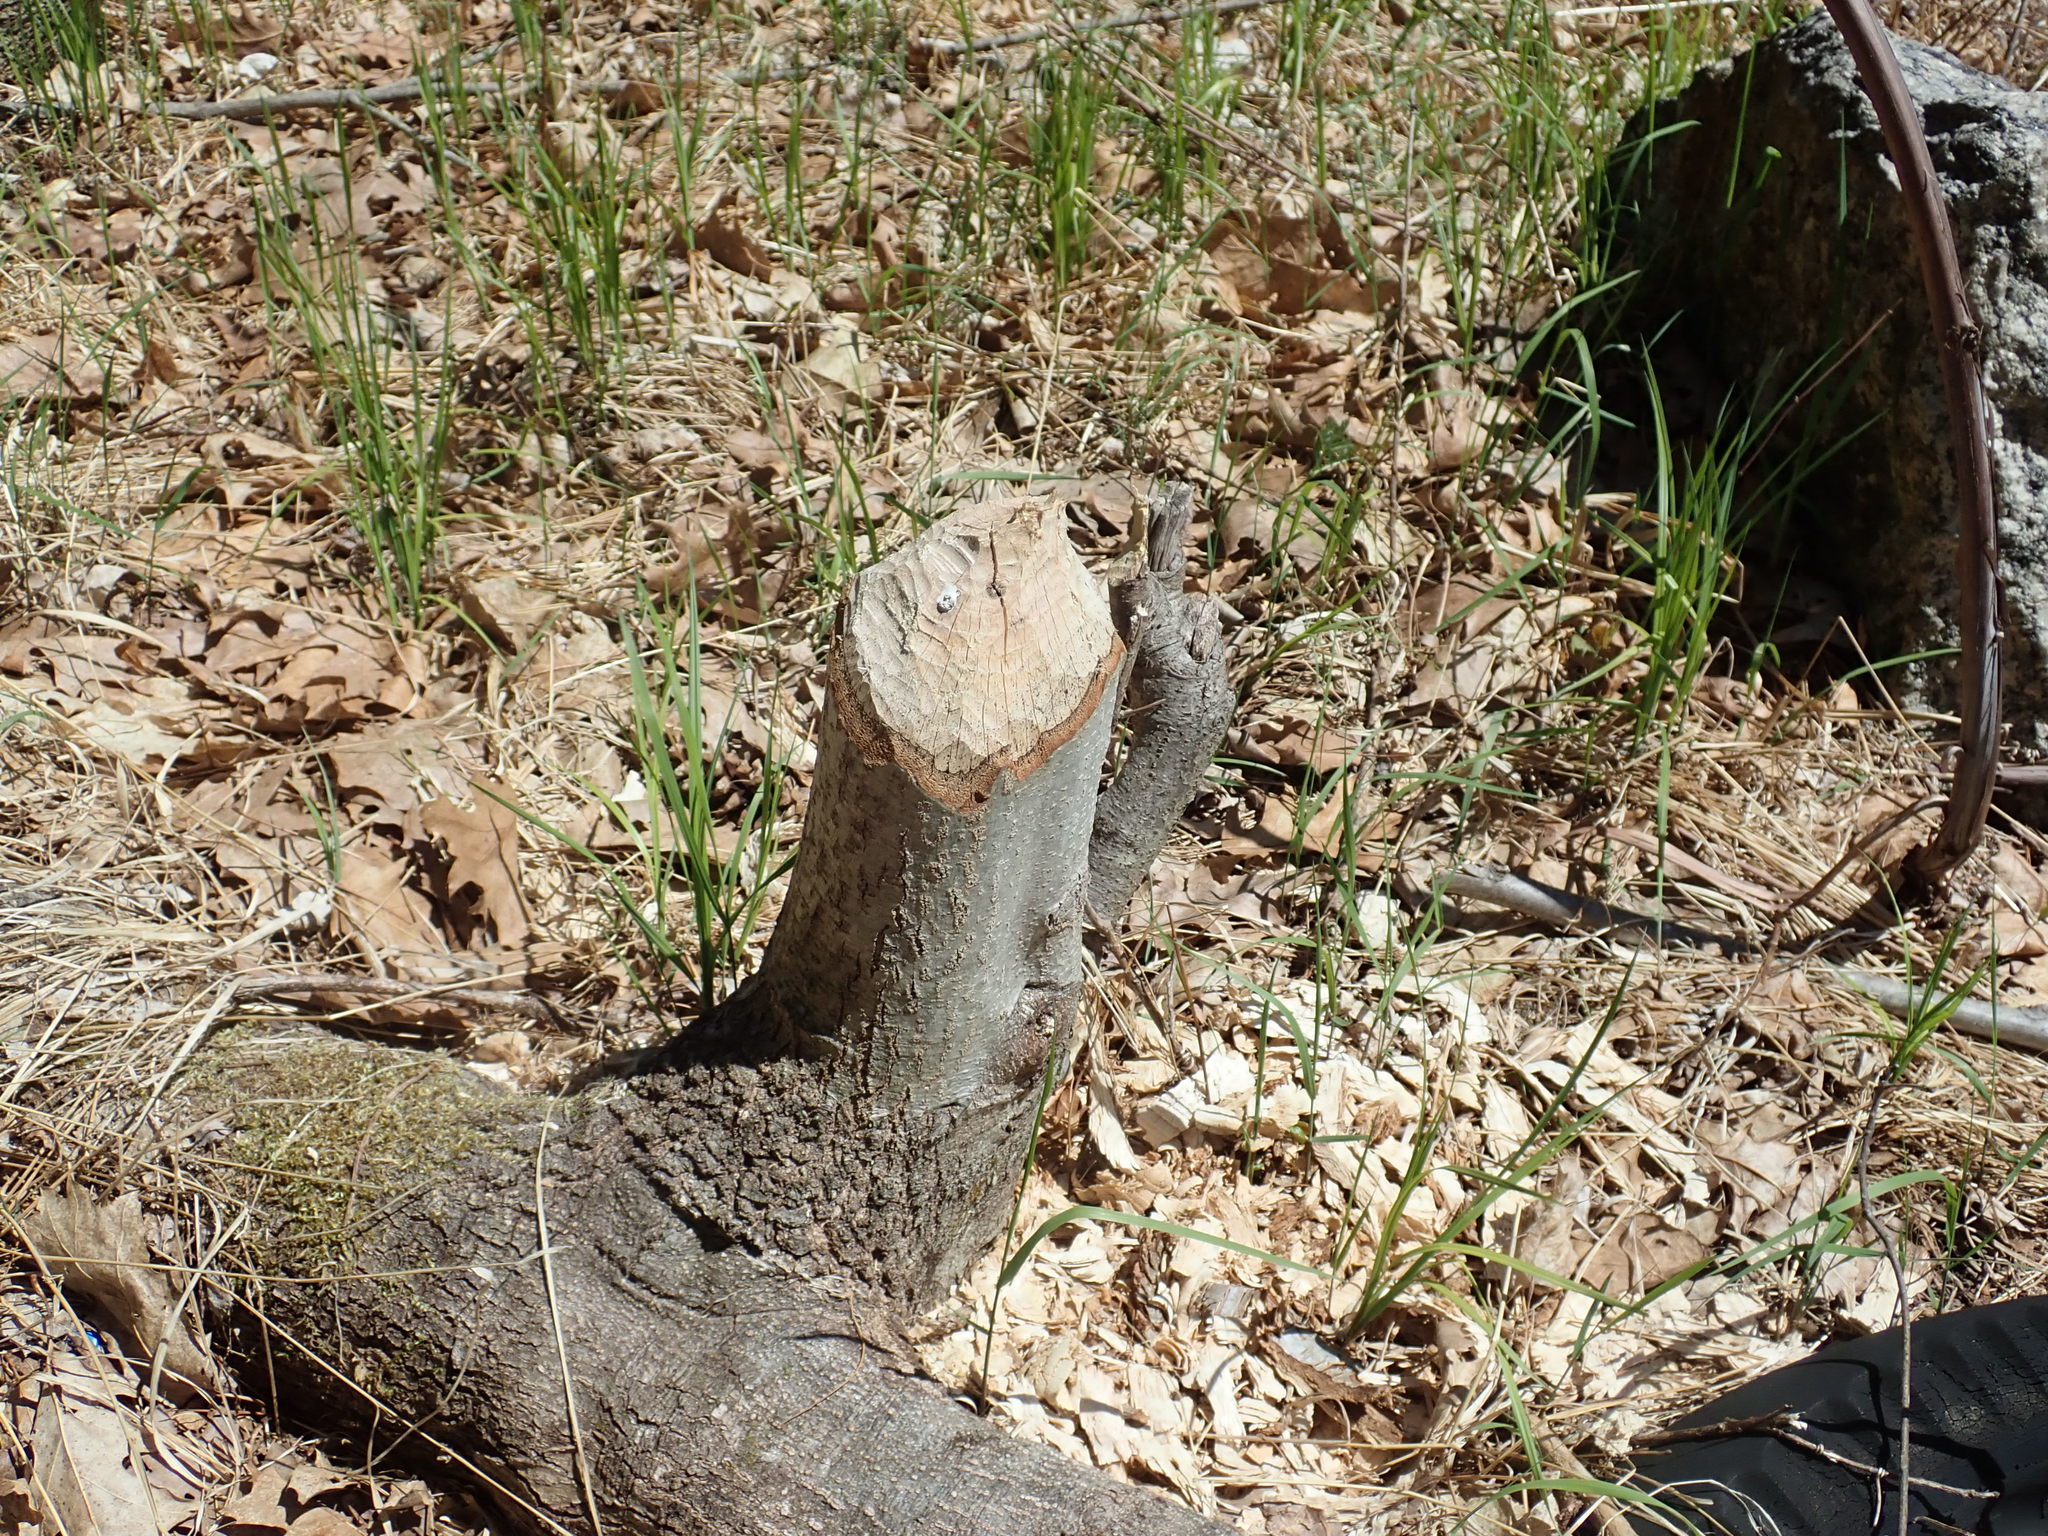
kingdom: Animalia
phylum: Chordata
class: Mammalia
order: Rodentia
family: Castoridae
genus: Castor
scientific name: Castor canadensis
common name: American beaver
